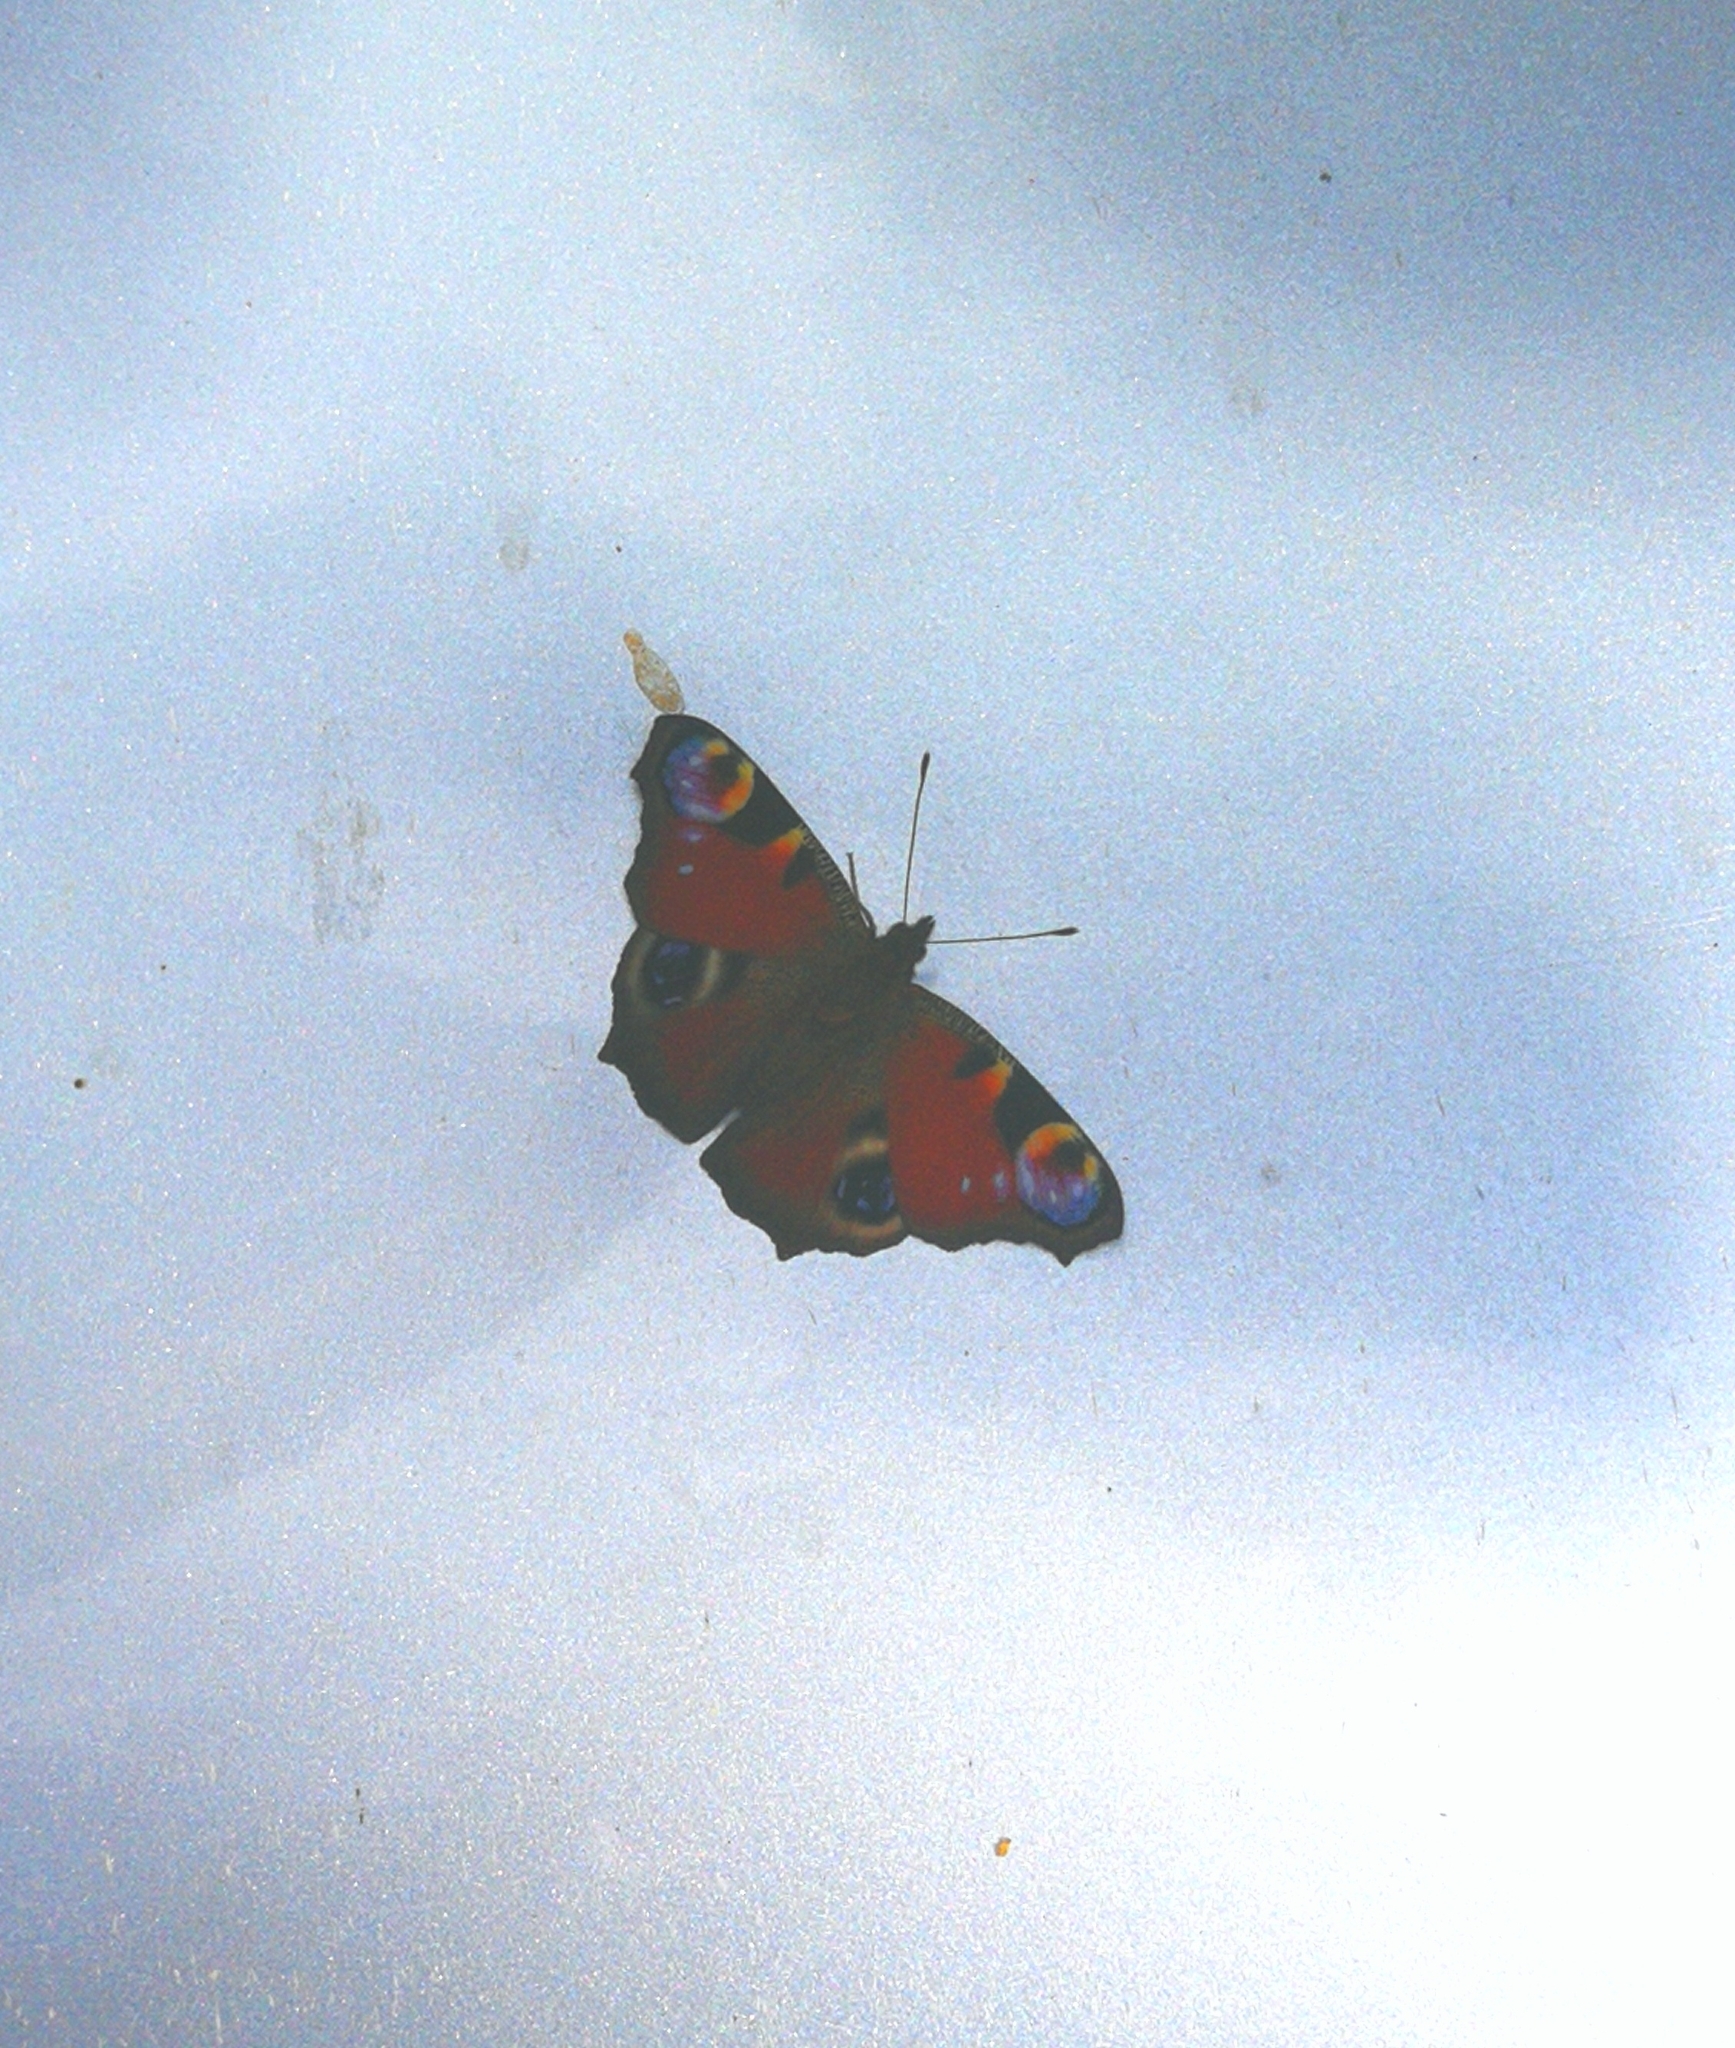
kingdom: Animalia
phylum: Arthropoda
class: Insecta
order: Lepidoptera
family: Nymphalidae
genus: Aglais
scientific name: Aglais io
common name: Peacock
